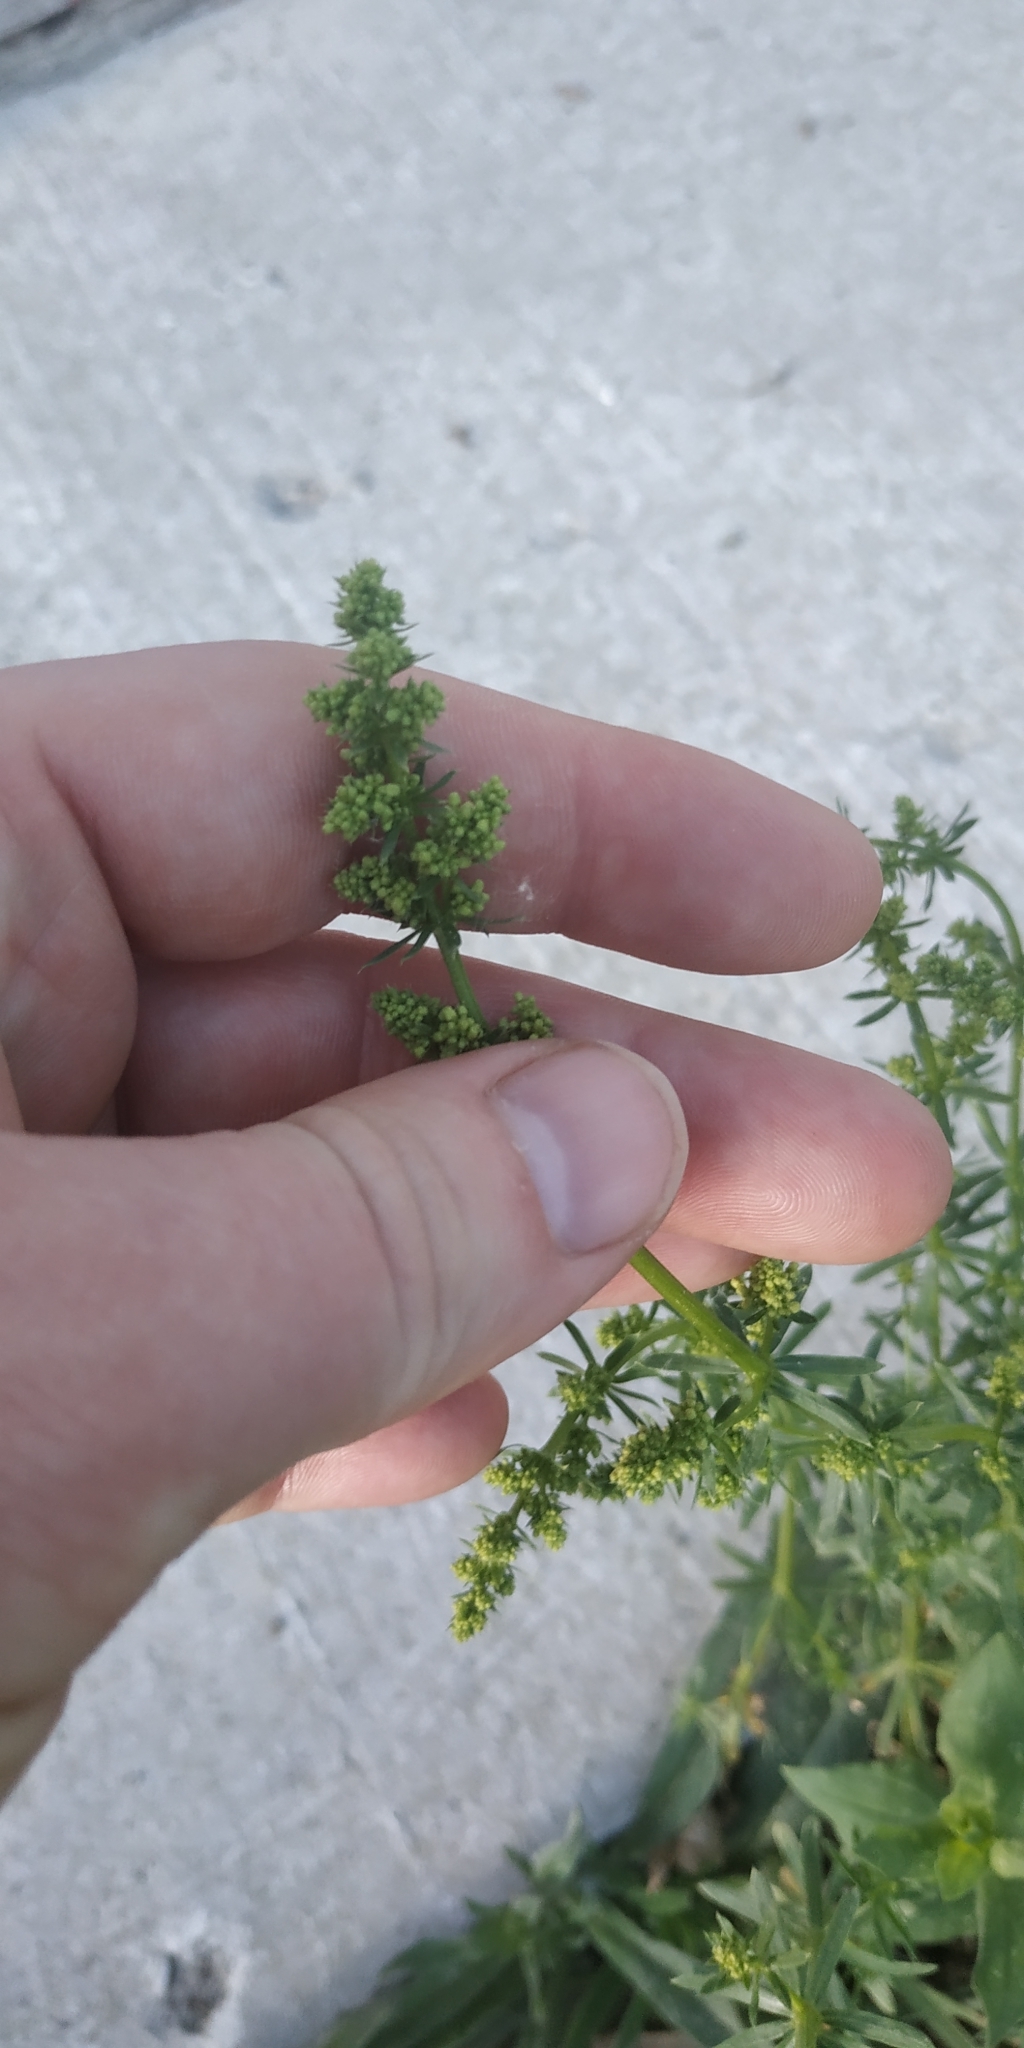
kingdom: Plantae
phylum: Tracheophyta
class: Magnoliopsida
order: Gentianales
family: Rubiaceae
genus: Galium
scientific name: Galium mollugo
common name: Hedge bedstraw
